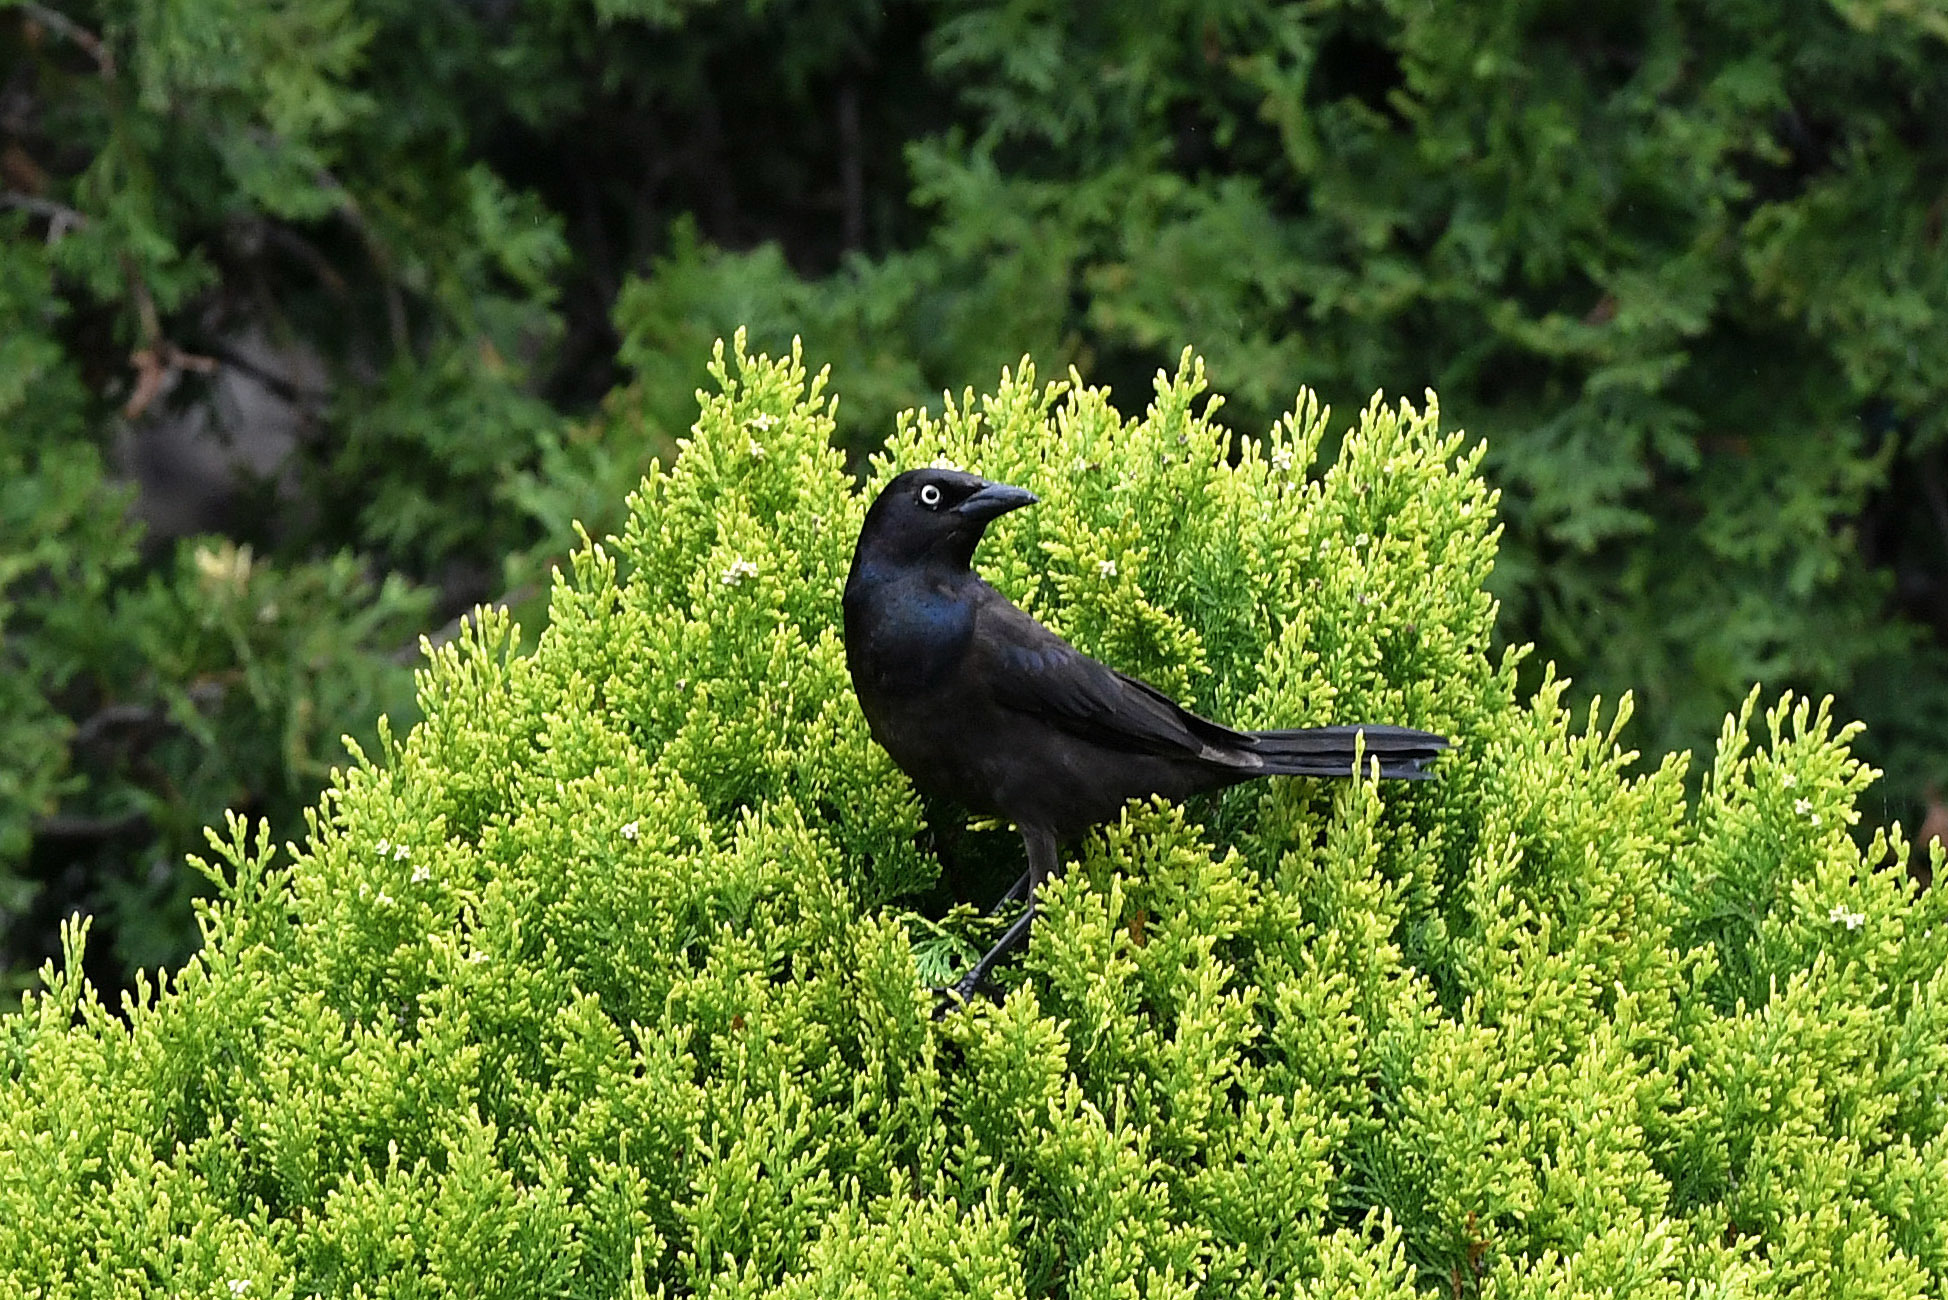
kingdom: Animalia
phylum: Chordata
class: Aves
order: Passeriformes
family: Icteridae
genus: Quiscalus
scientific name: Quiscalus quiscula
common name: Common grackle
